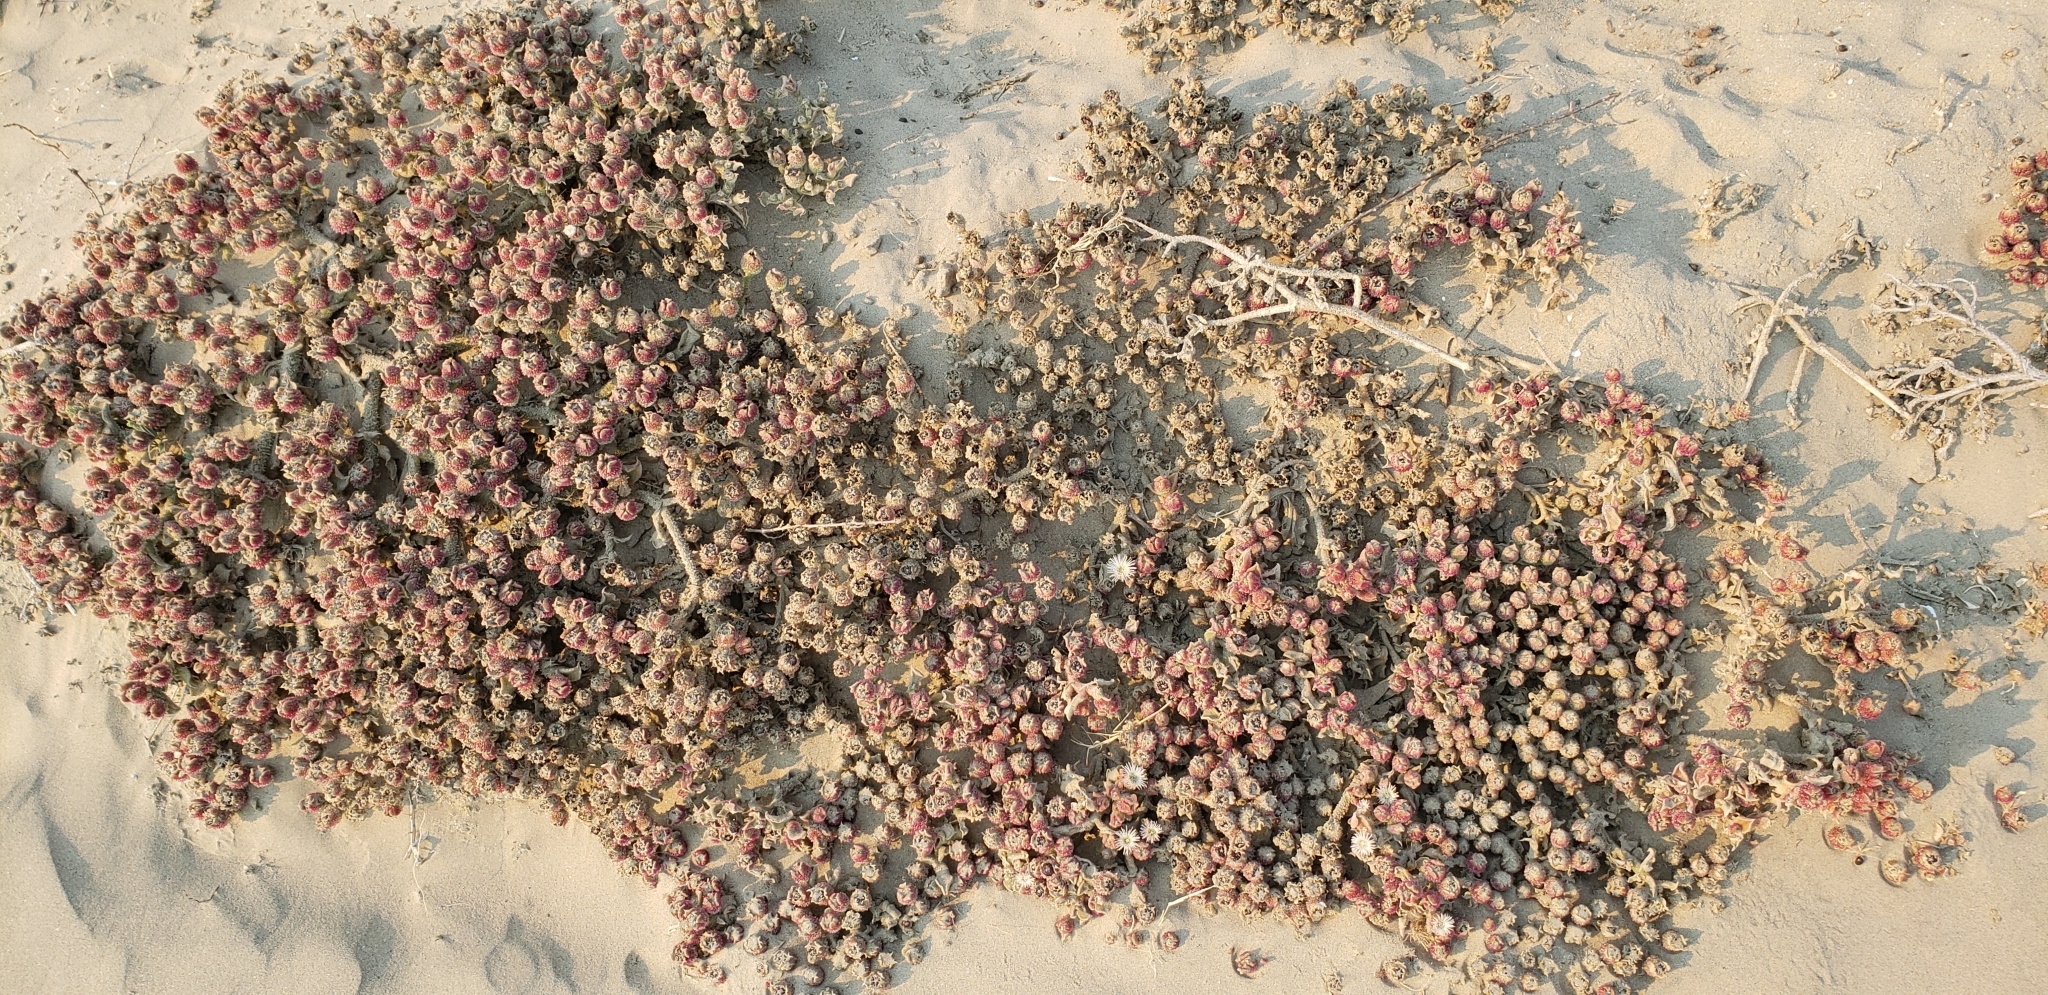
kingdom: Plantae
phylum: Tracheophyta
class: Magnoliopsida
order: Caryophyllales
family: Aizoaceae
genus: Mesembryanthemum
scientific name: Mesembryanthemum crystallinum
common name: Common iceplant
